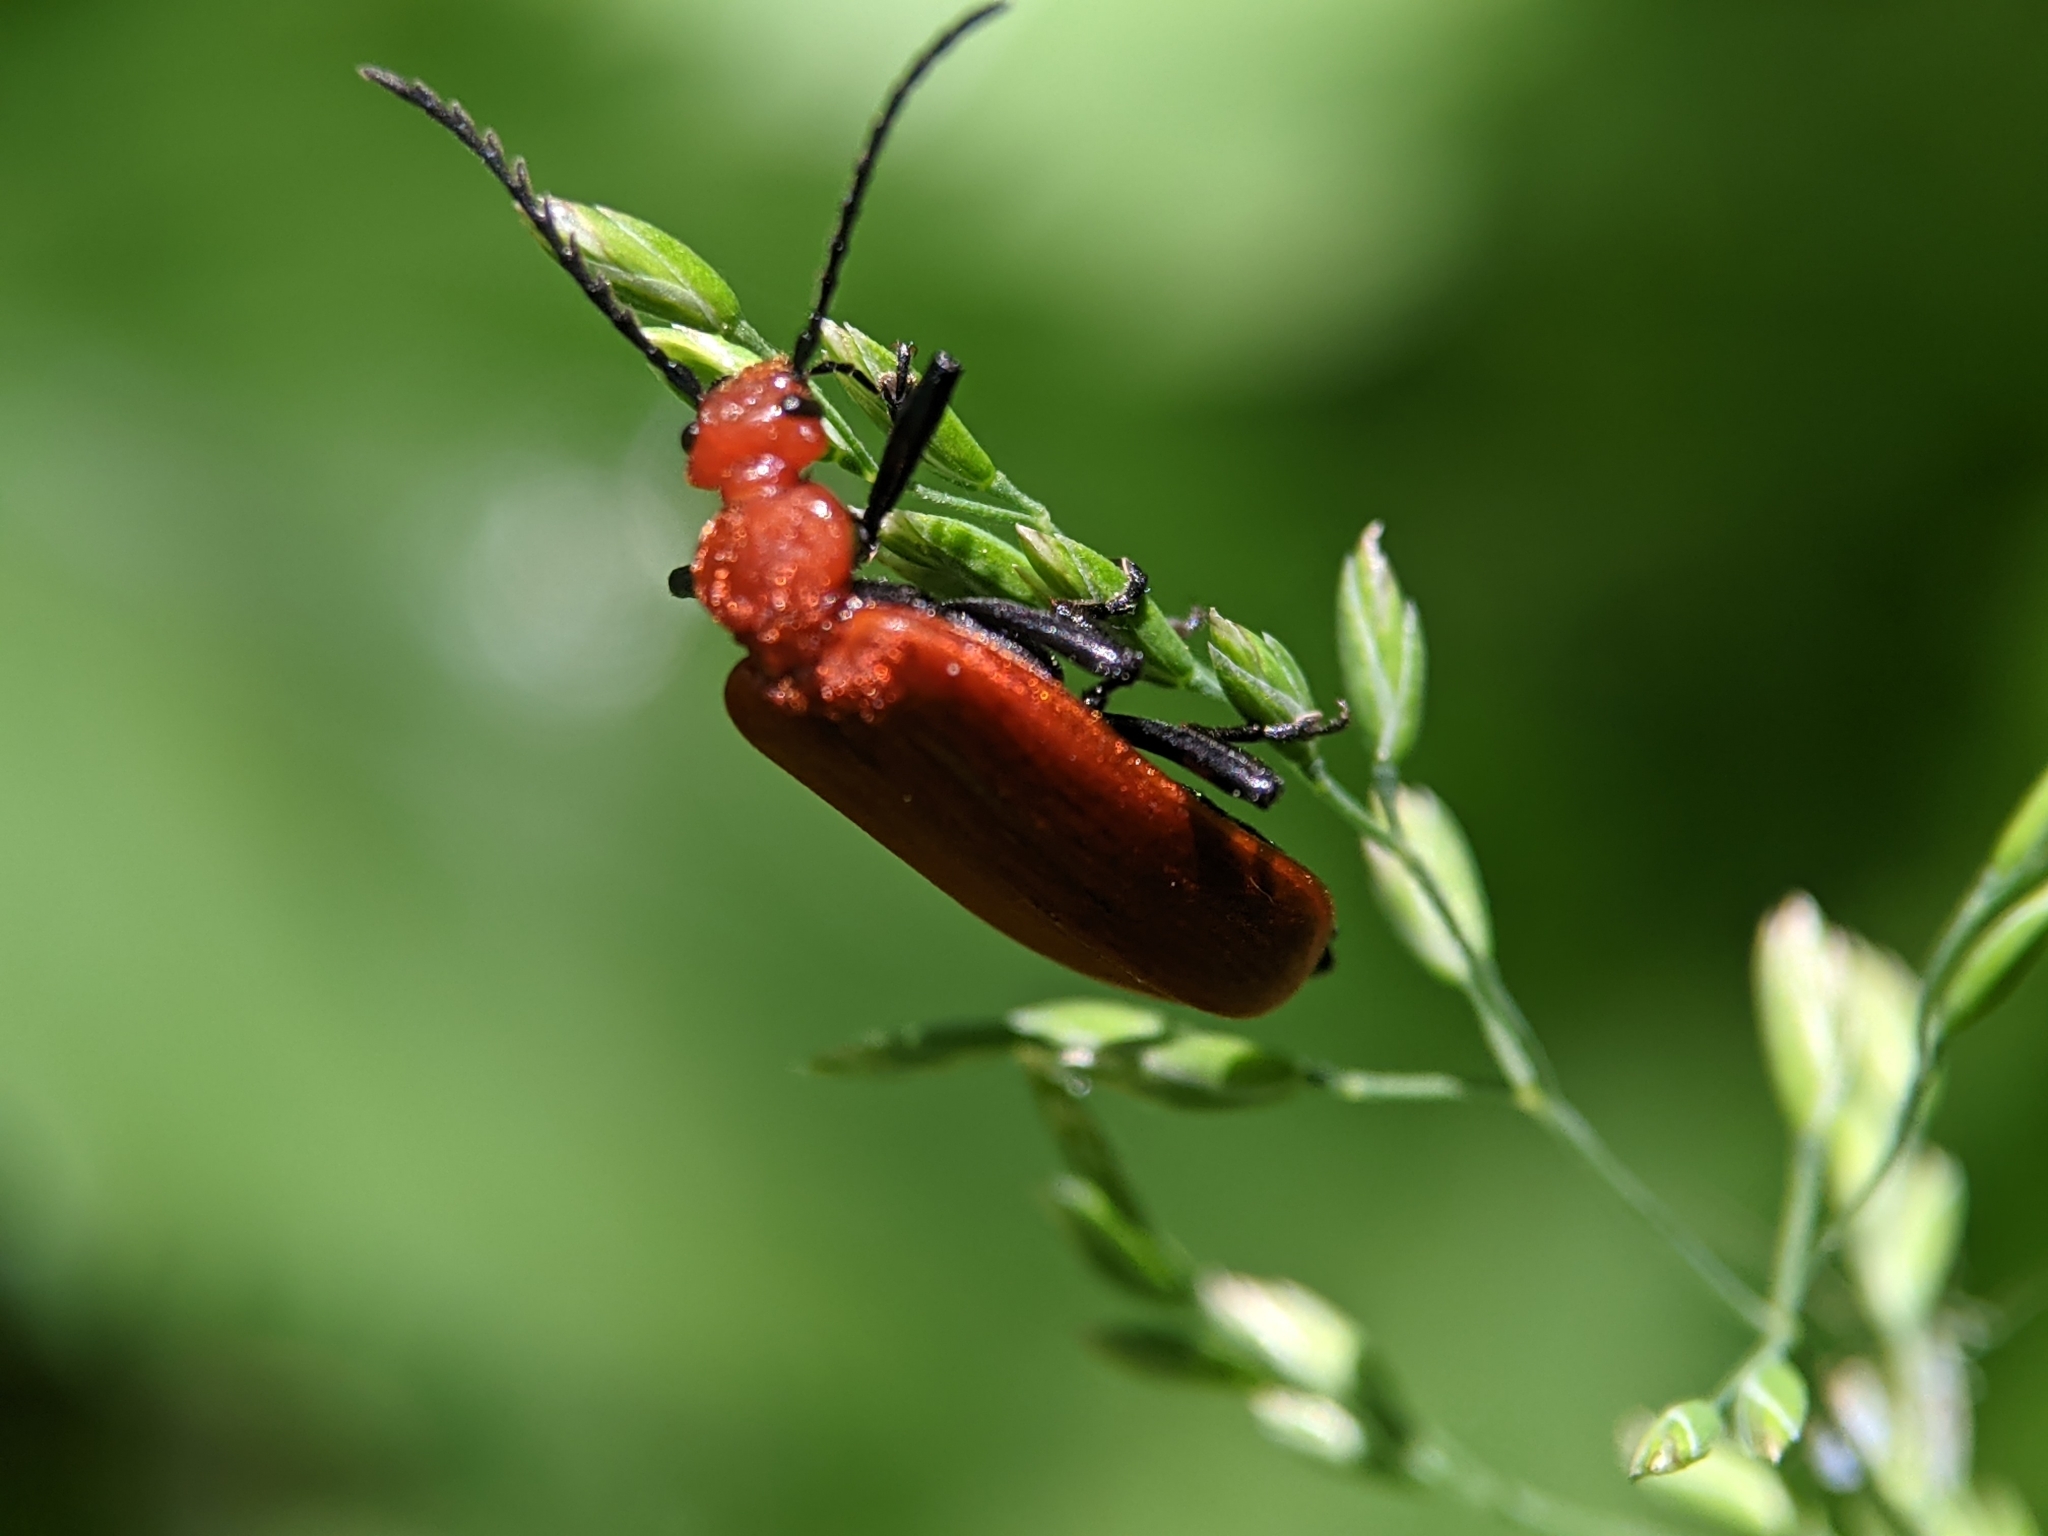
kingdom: Animalia
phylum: Arthropoda
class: Insecta
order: Coleoptera
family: Pyrochroidae
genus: Pyrochroa
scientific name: Pyrochroa serraticornis
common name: Red-headed cardinal beetle
